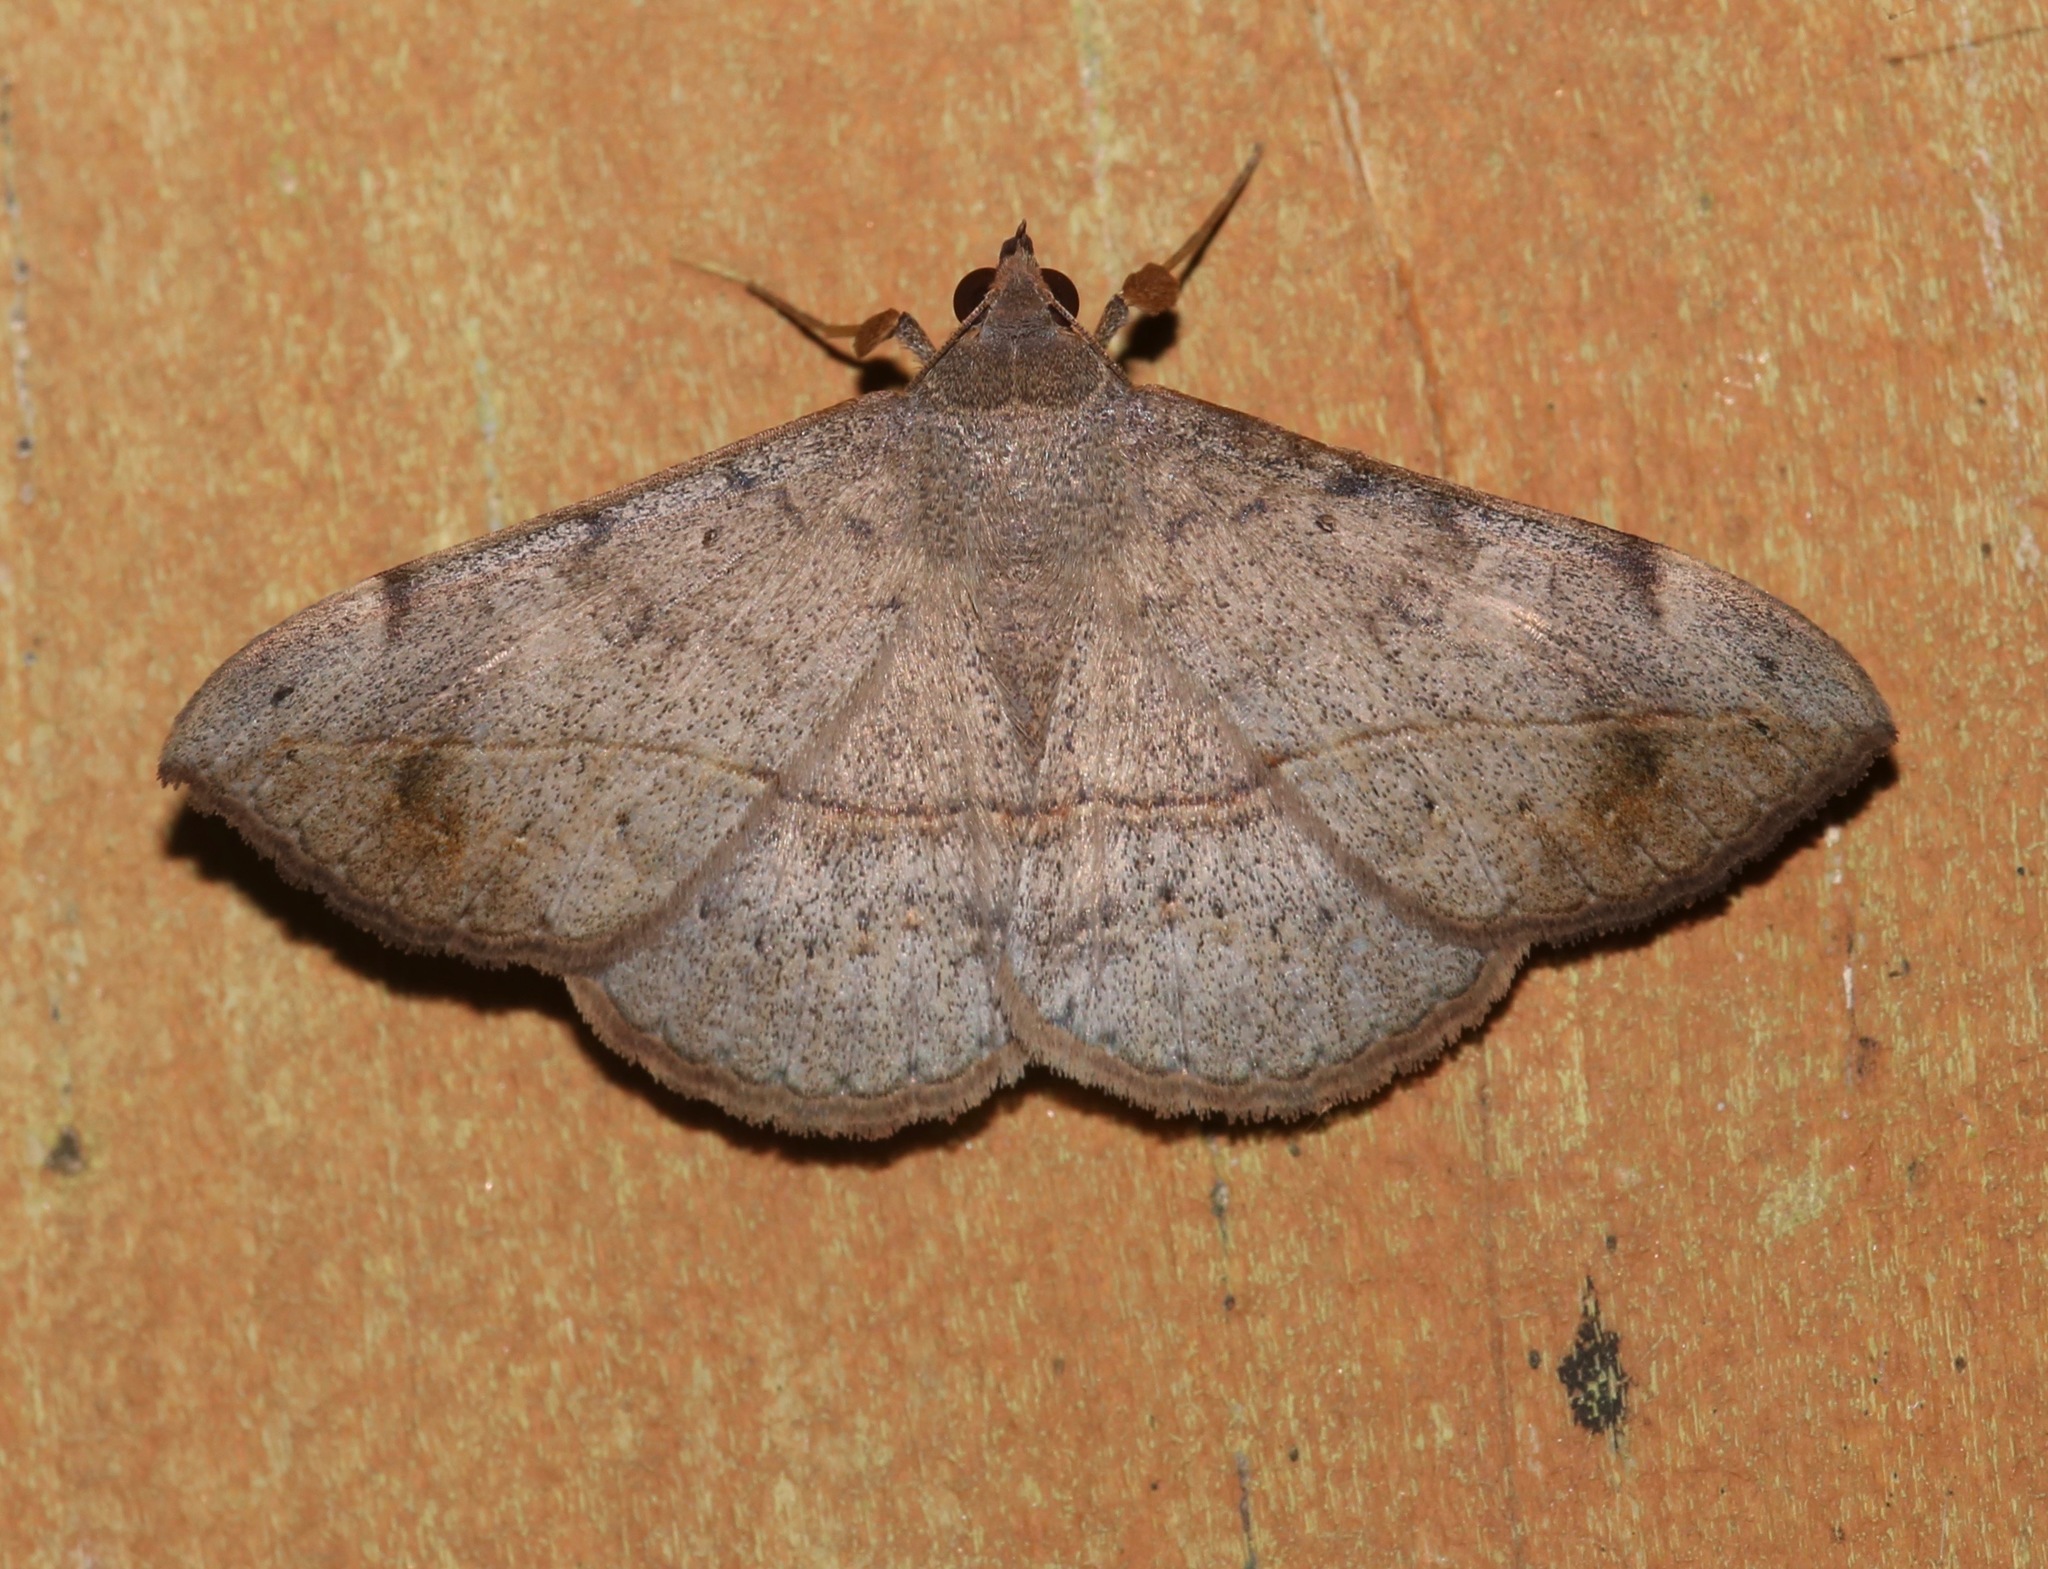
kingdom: Animalia
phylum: Arthropoda
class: Insecta
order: Lepidoptera
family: Erebidae
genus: Anticarsia
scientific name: Anticarsia gemmatalis
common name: Cutworm moth
